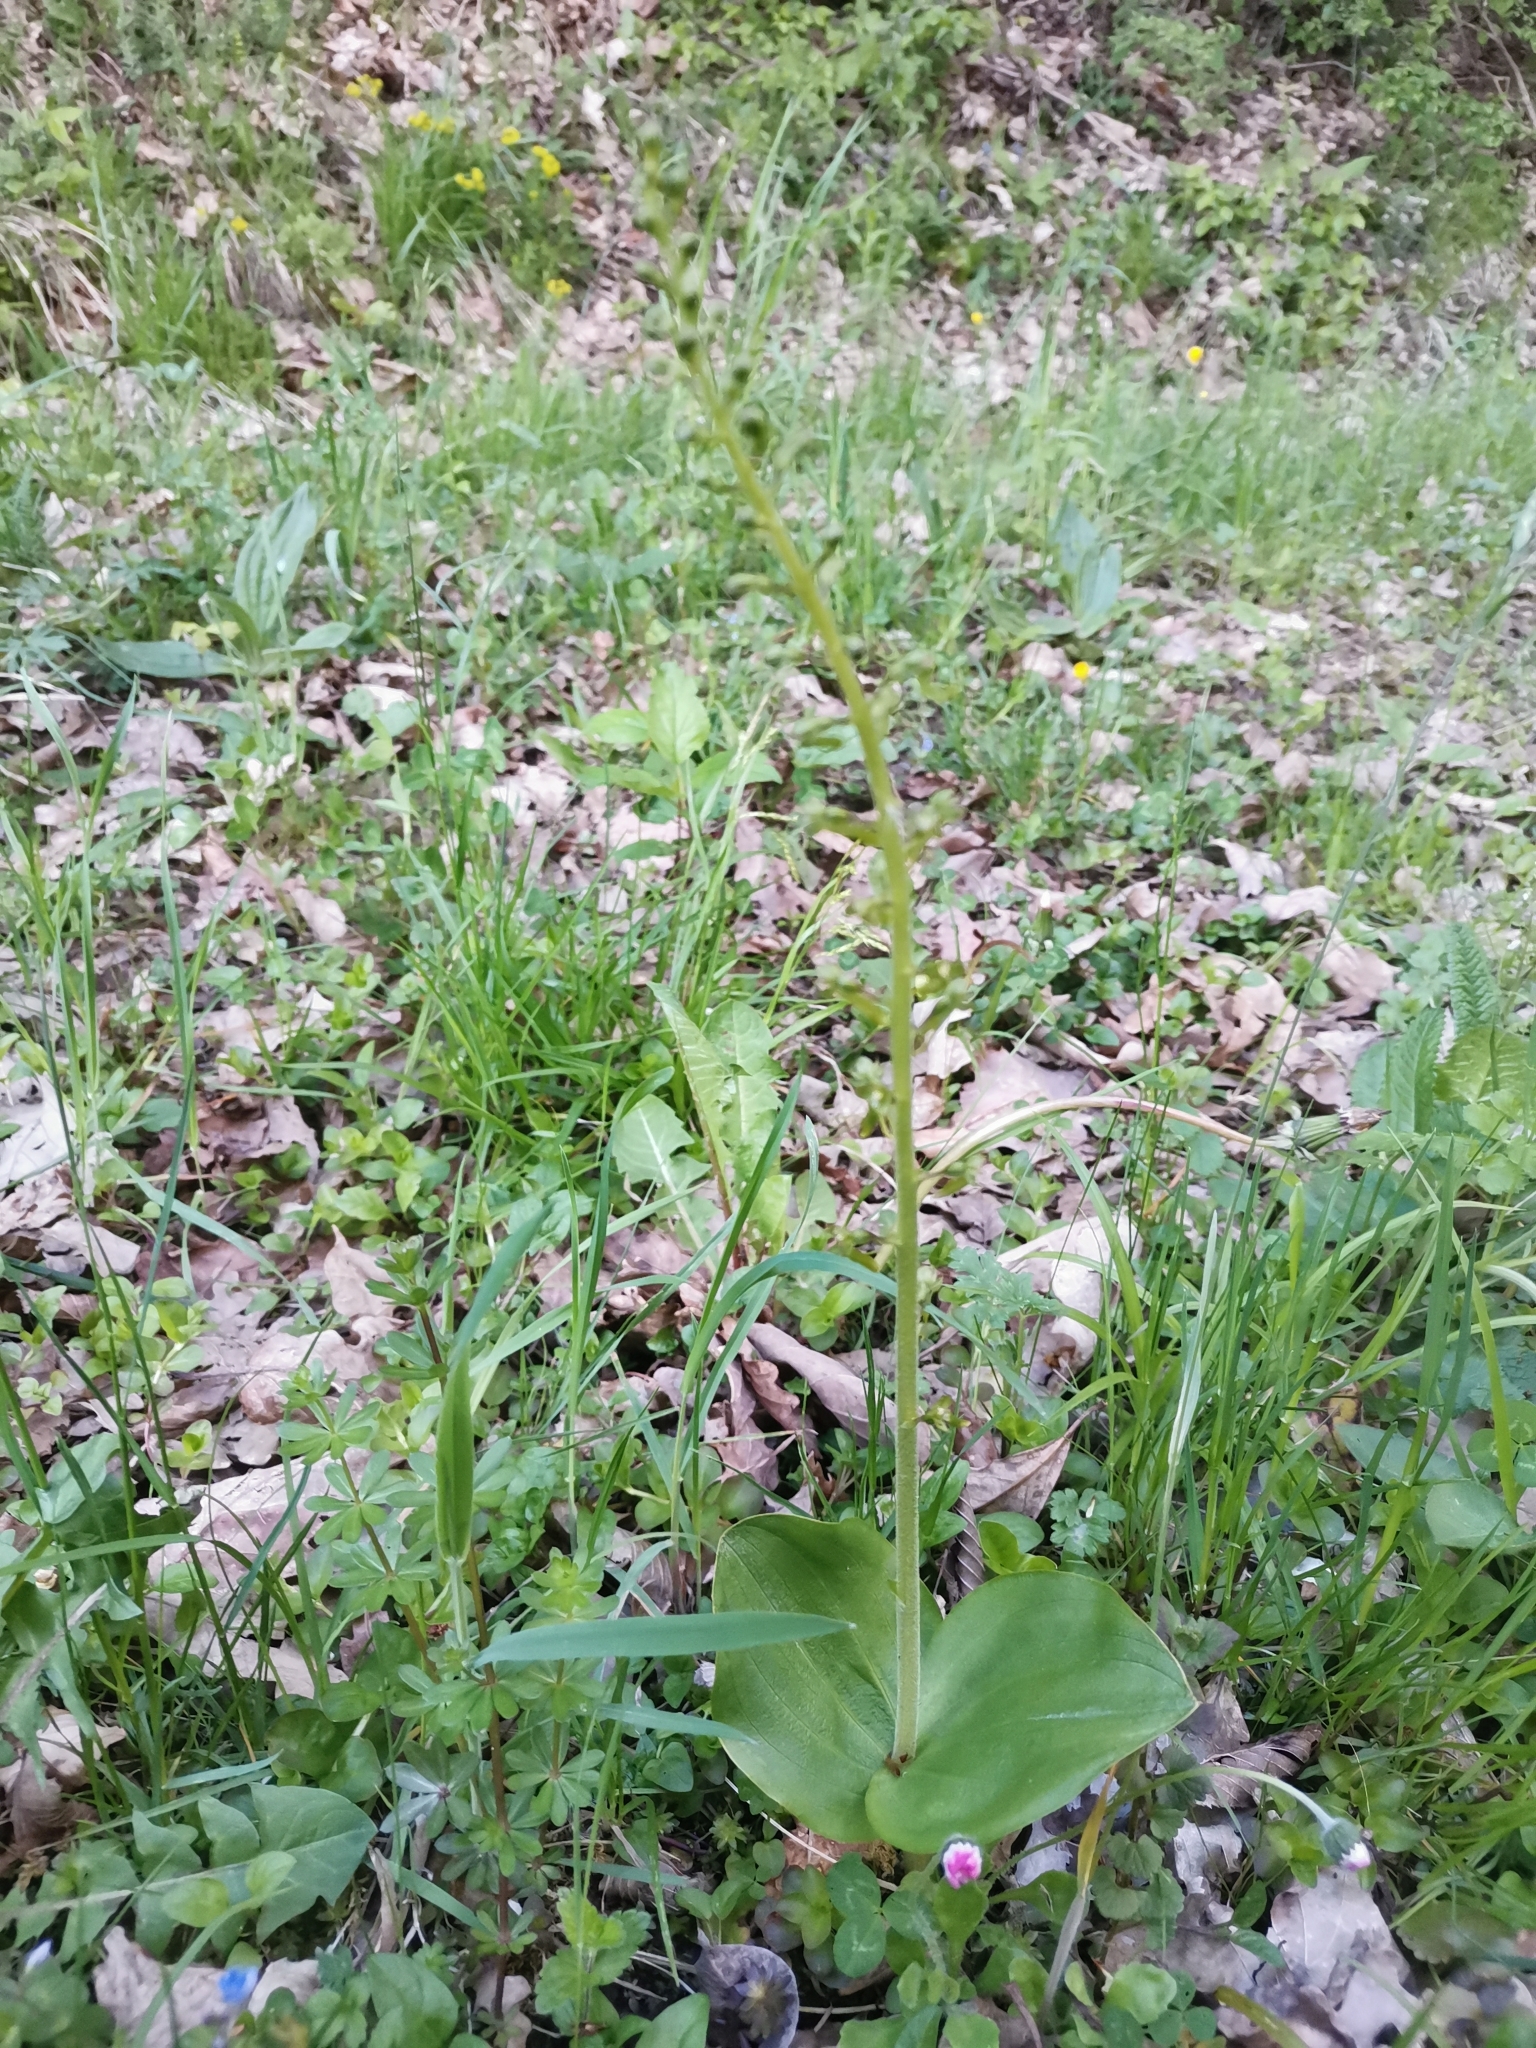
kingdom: Plantae
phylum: Tracheophyta
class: Liliopsida
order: Asparagales
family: Orchidaceae
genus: Neottia
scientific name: Neottia ovata
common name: Common twayblade
